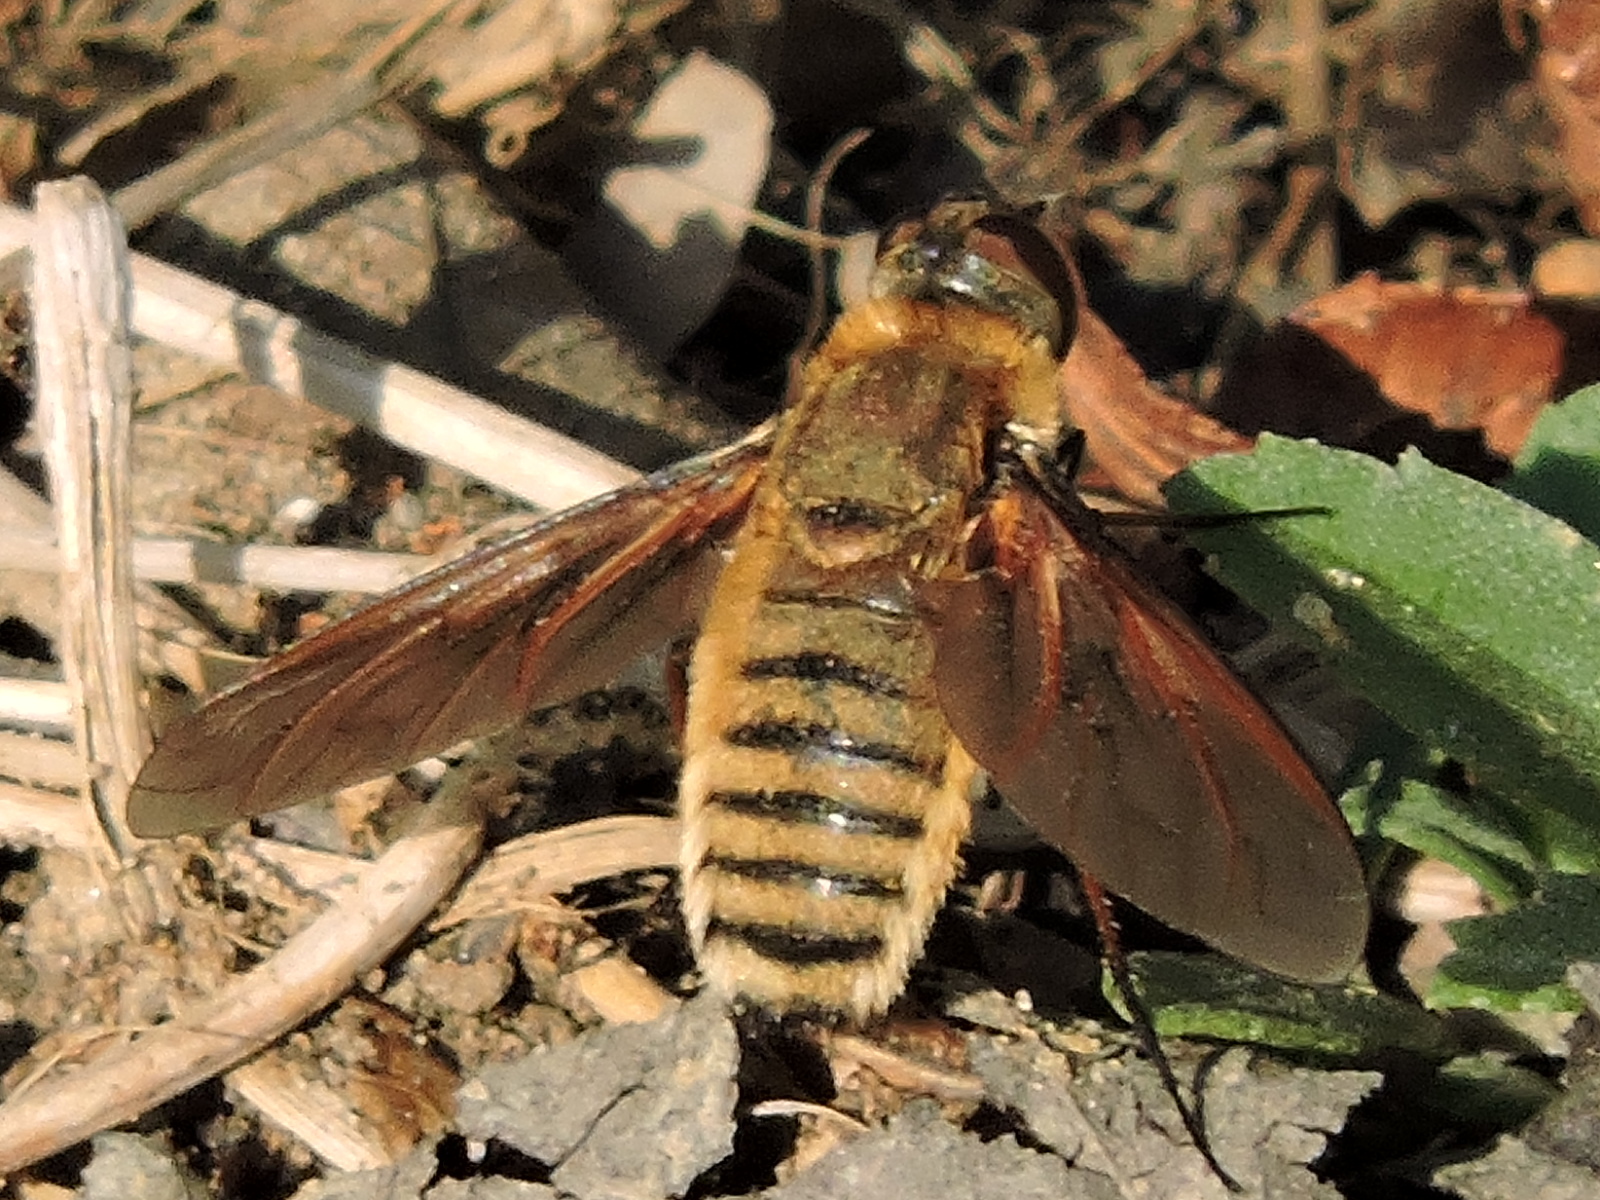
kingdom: Animalia
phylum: Arthropoda
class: Insecta
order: Diptera
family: Bombyliidae
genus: Poecilanthrax
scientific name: Poecilanthrax lucifer
